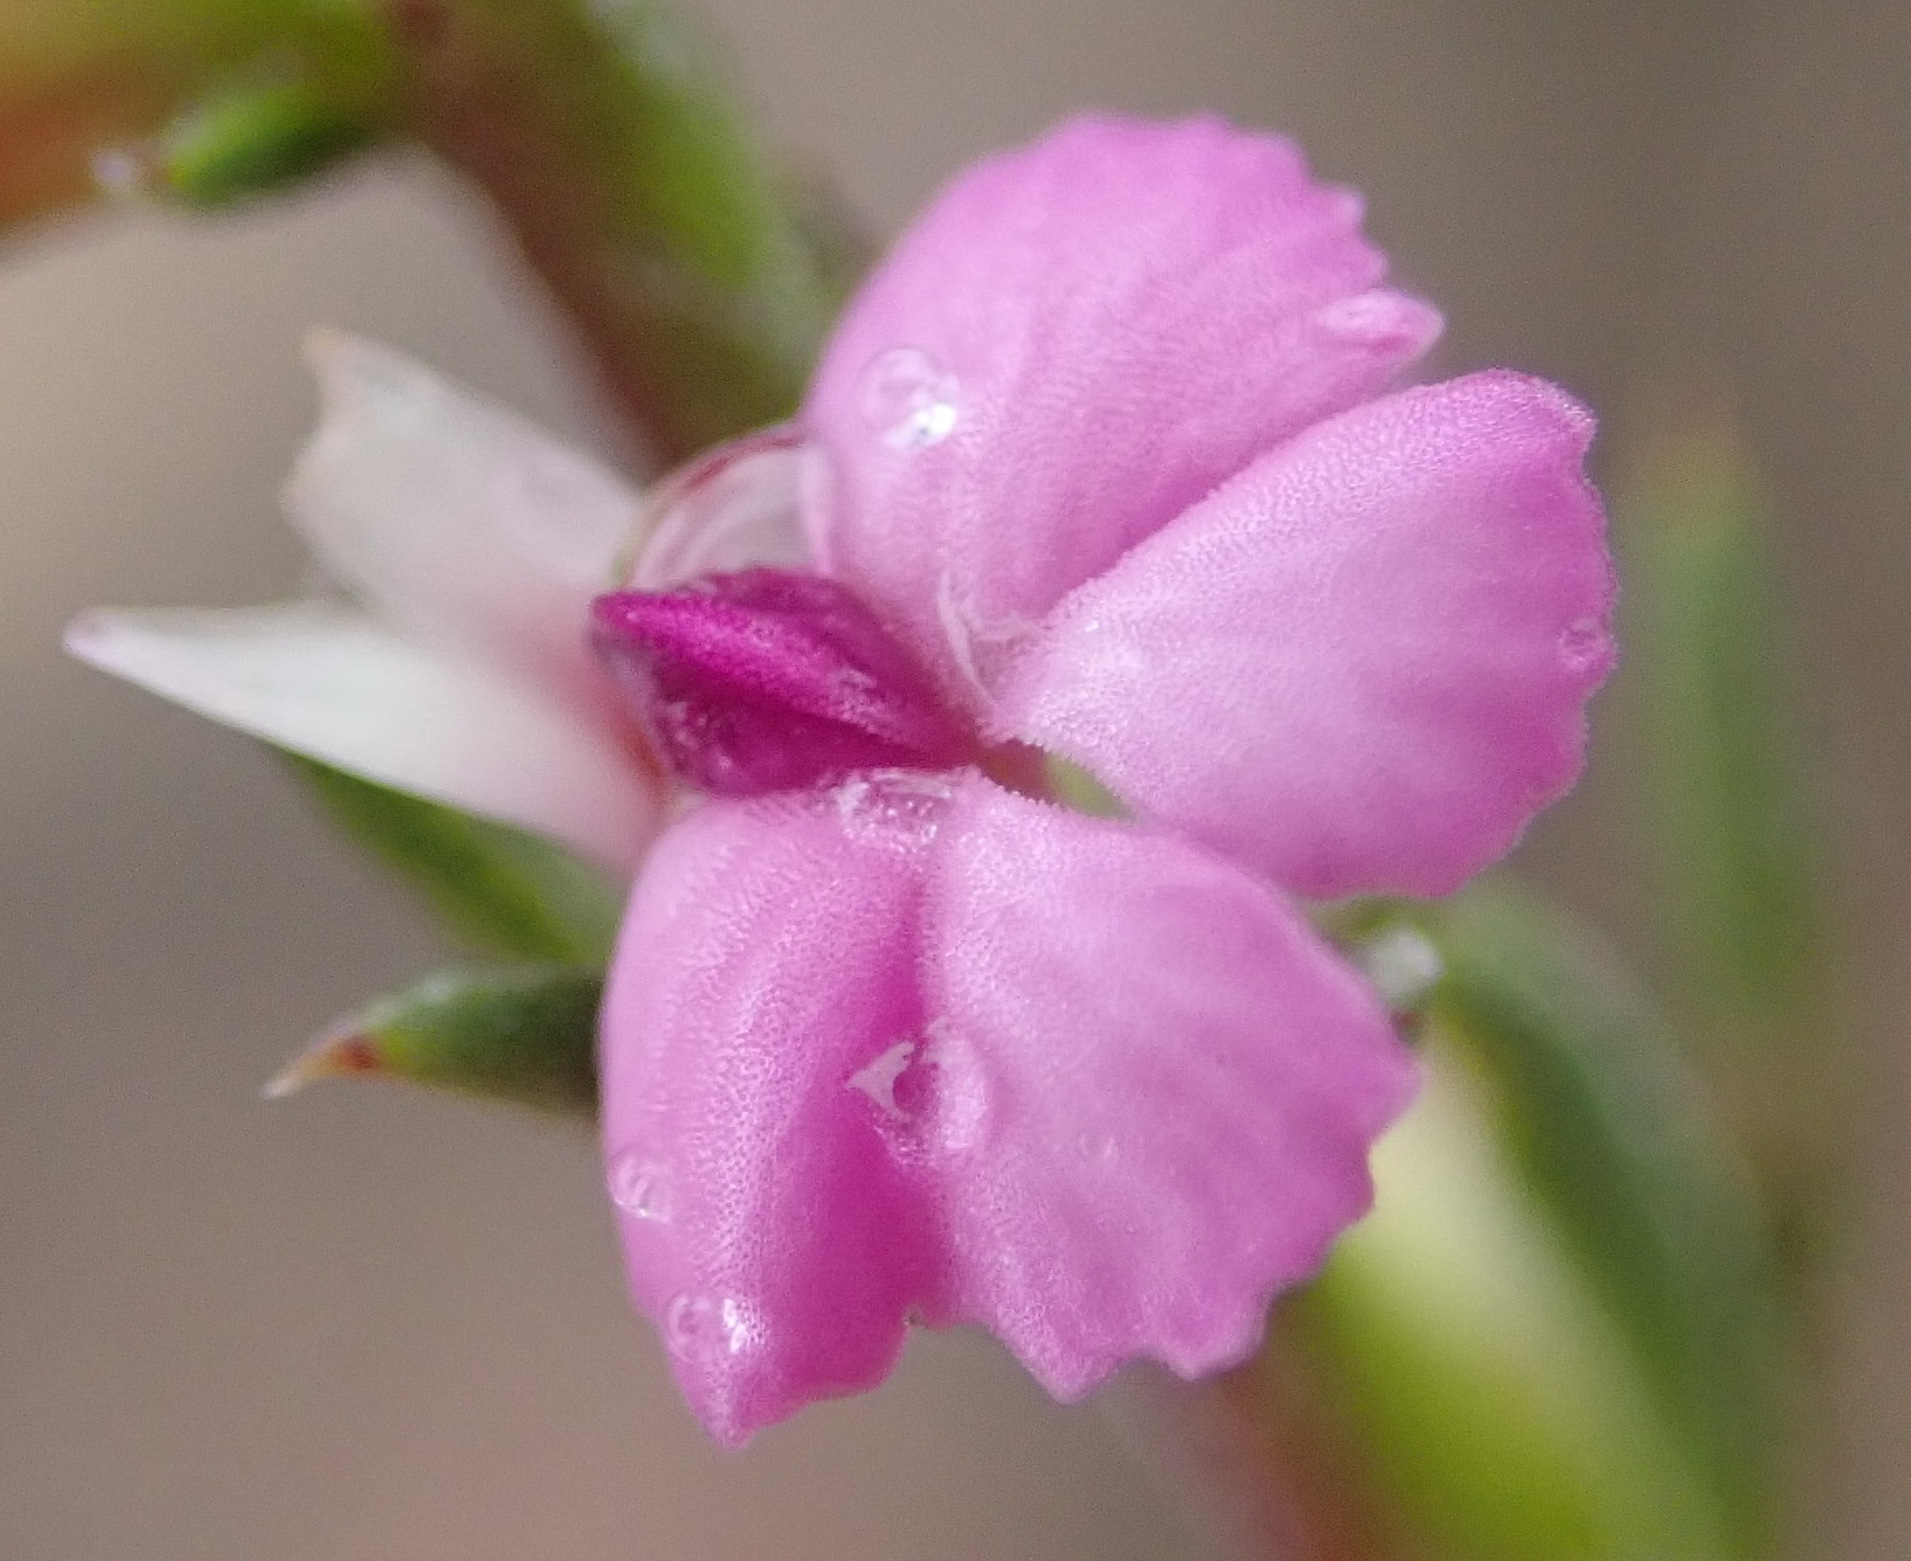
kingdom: Plantae
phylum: Tracheophyta
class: Magnoliopsida
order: Fabales
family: Polygalaceae
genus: Muraltia
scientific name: Muraltia dispersa
